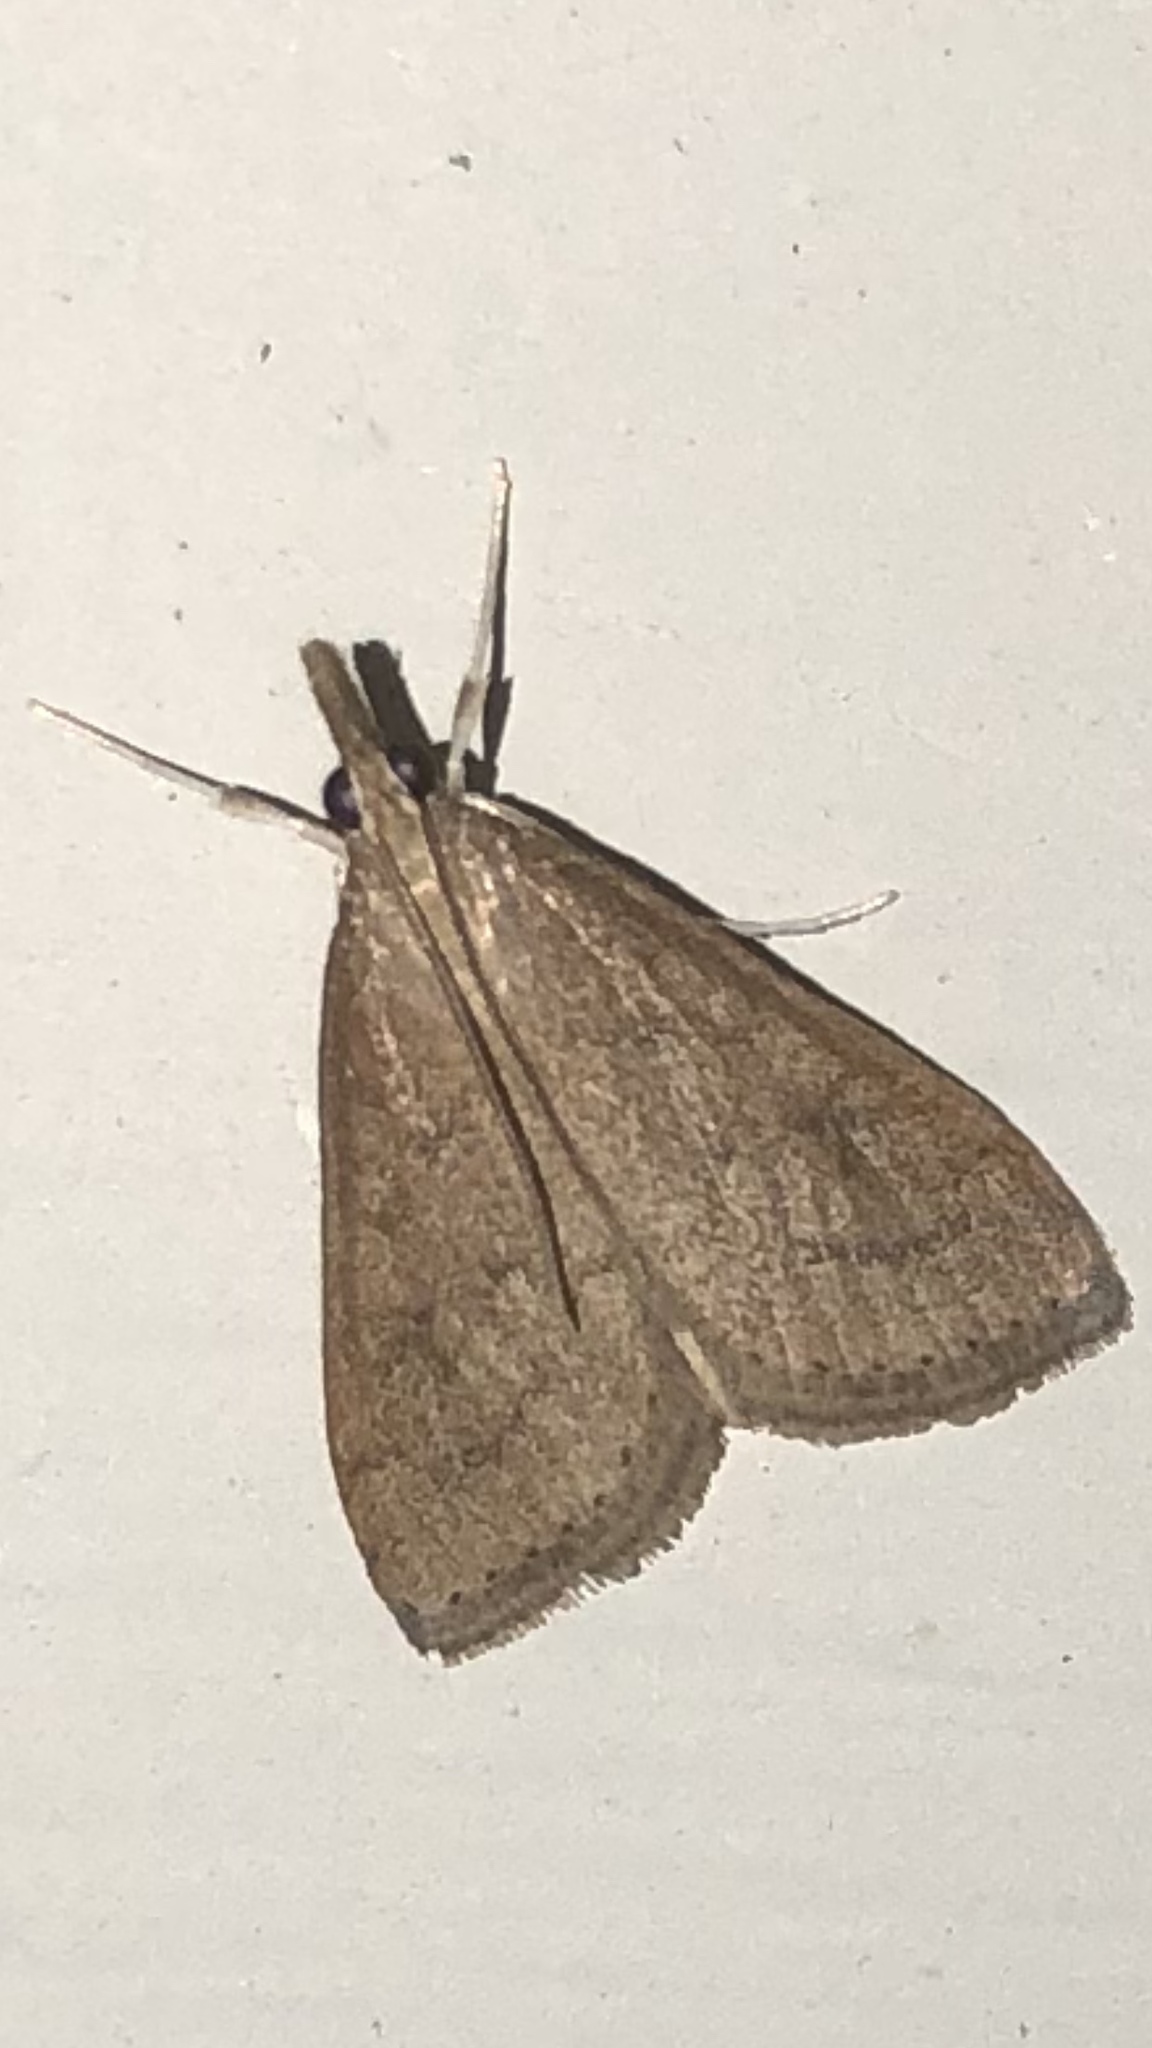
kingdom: Animalia
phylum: Arthropoda
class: Insecta
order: Lepidoptera
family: Crambidae
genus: Udea
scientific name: Udea rubigalis
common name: Celery leaftier moth
